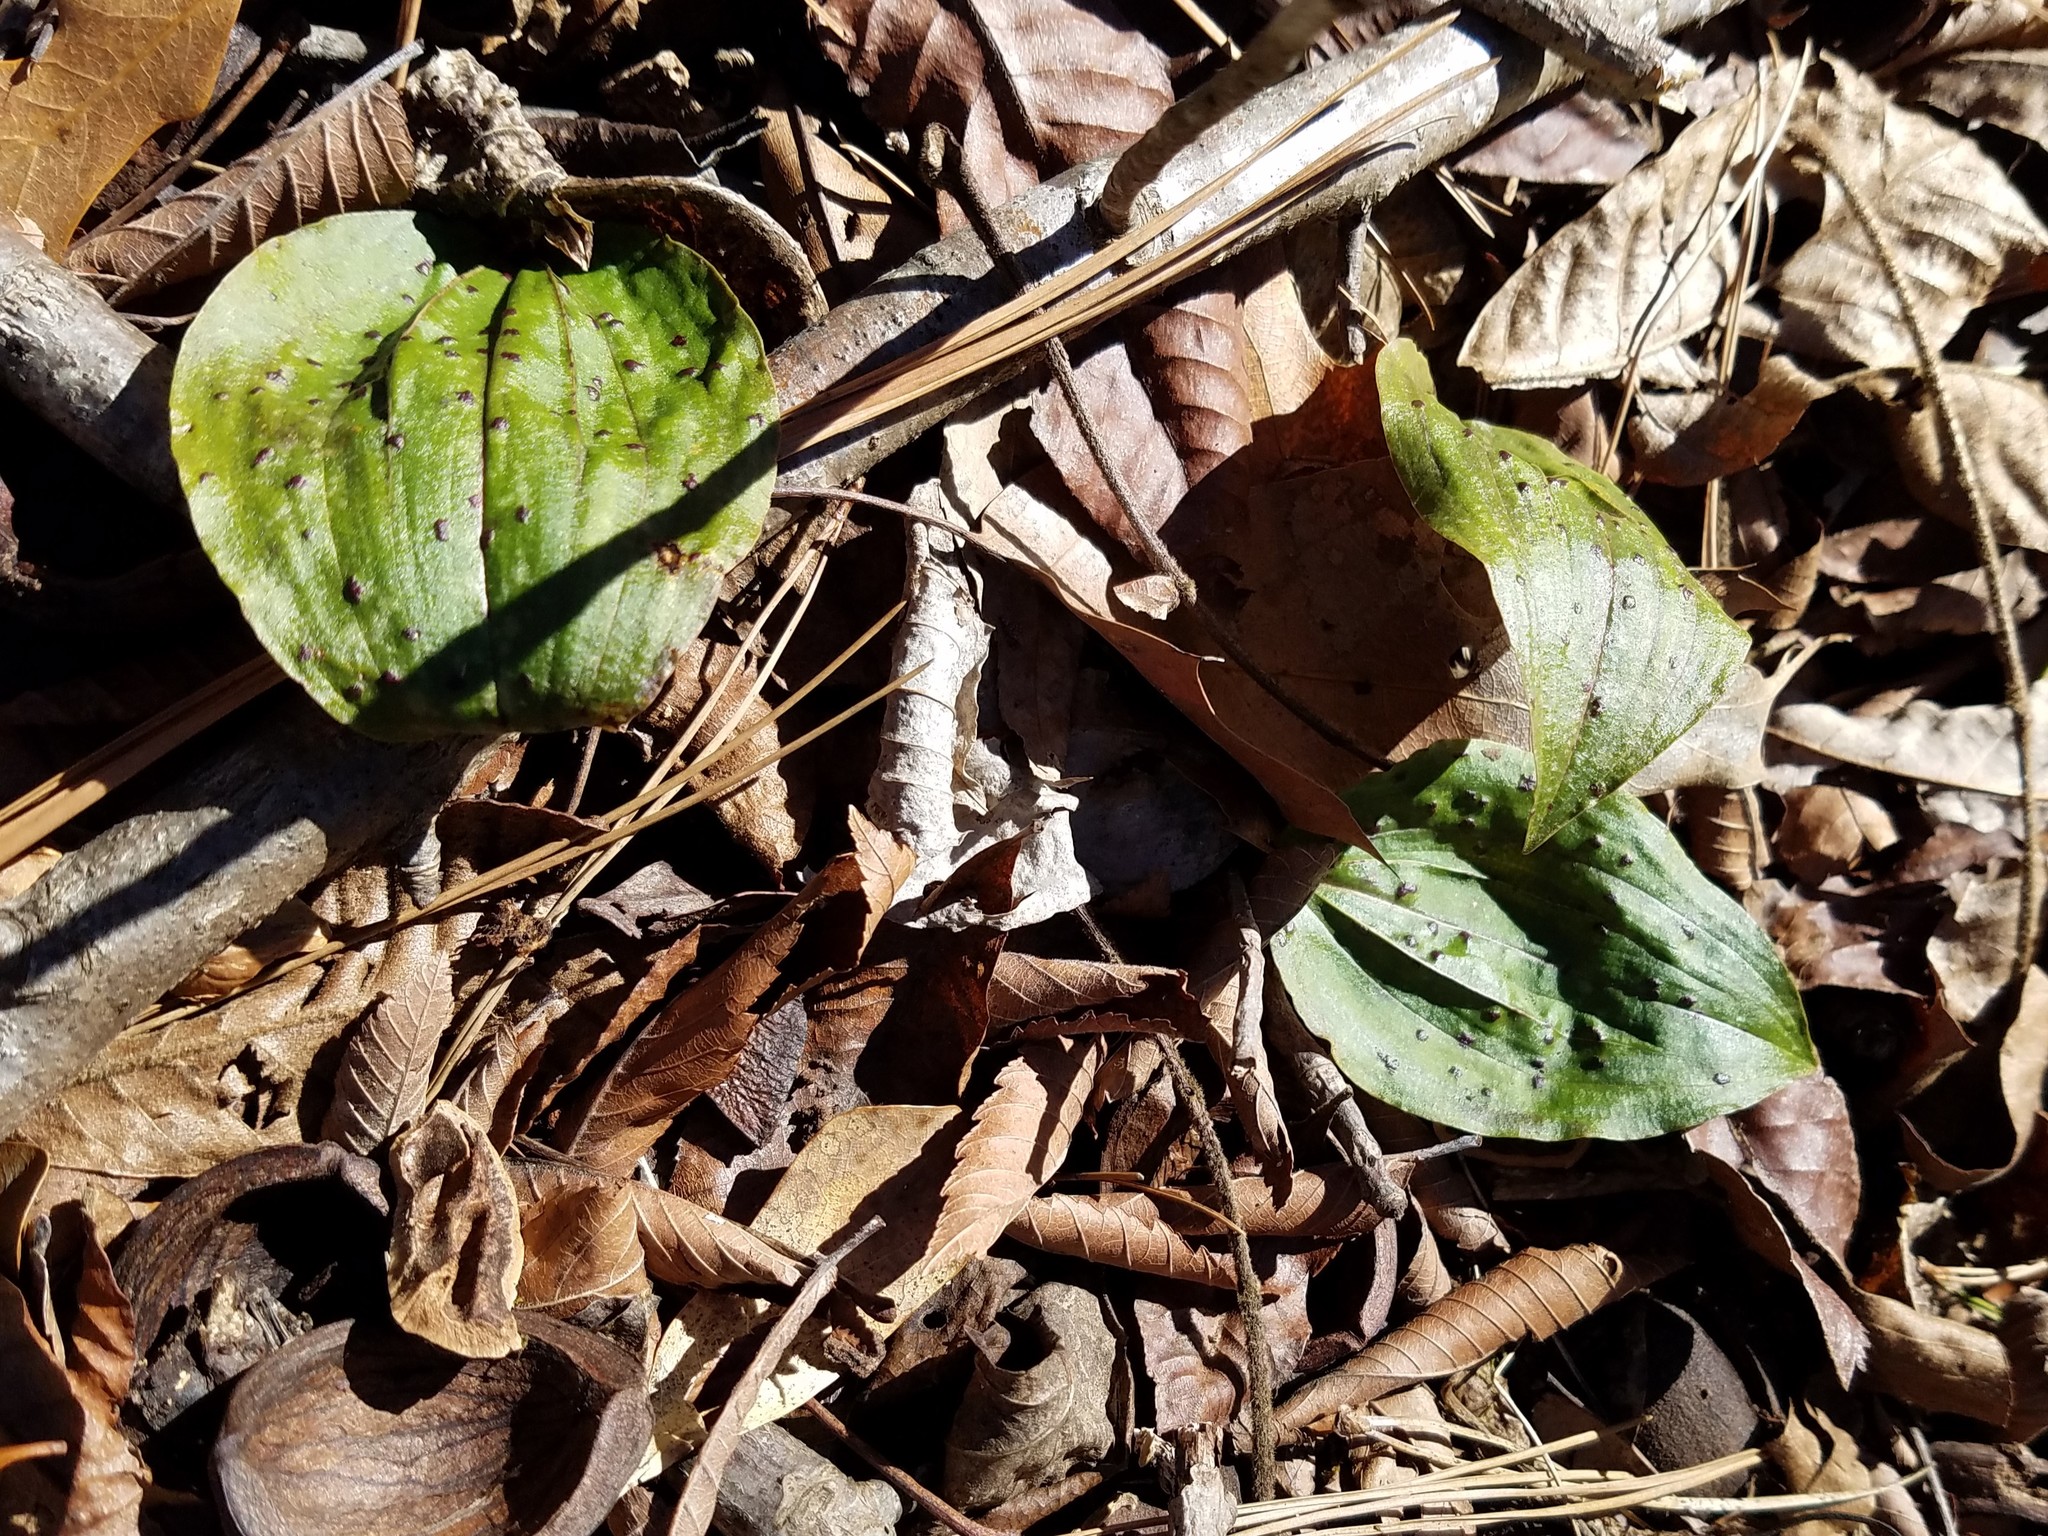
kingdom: Plantae
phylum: Tracheophyta
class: Liliopsida
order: Asparagales
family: Orchidaceae
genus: Tipularia
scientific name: Tipularia discolor
